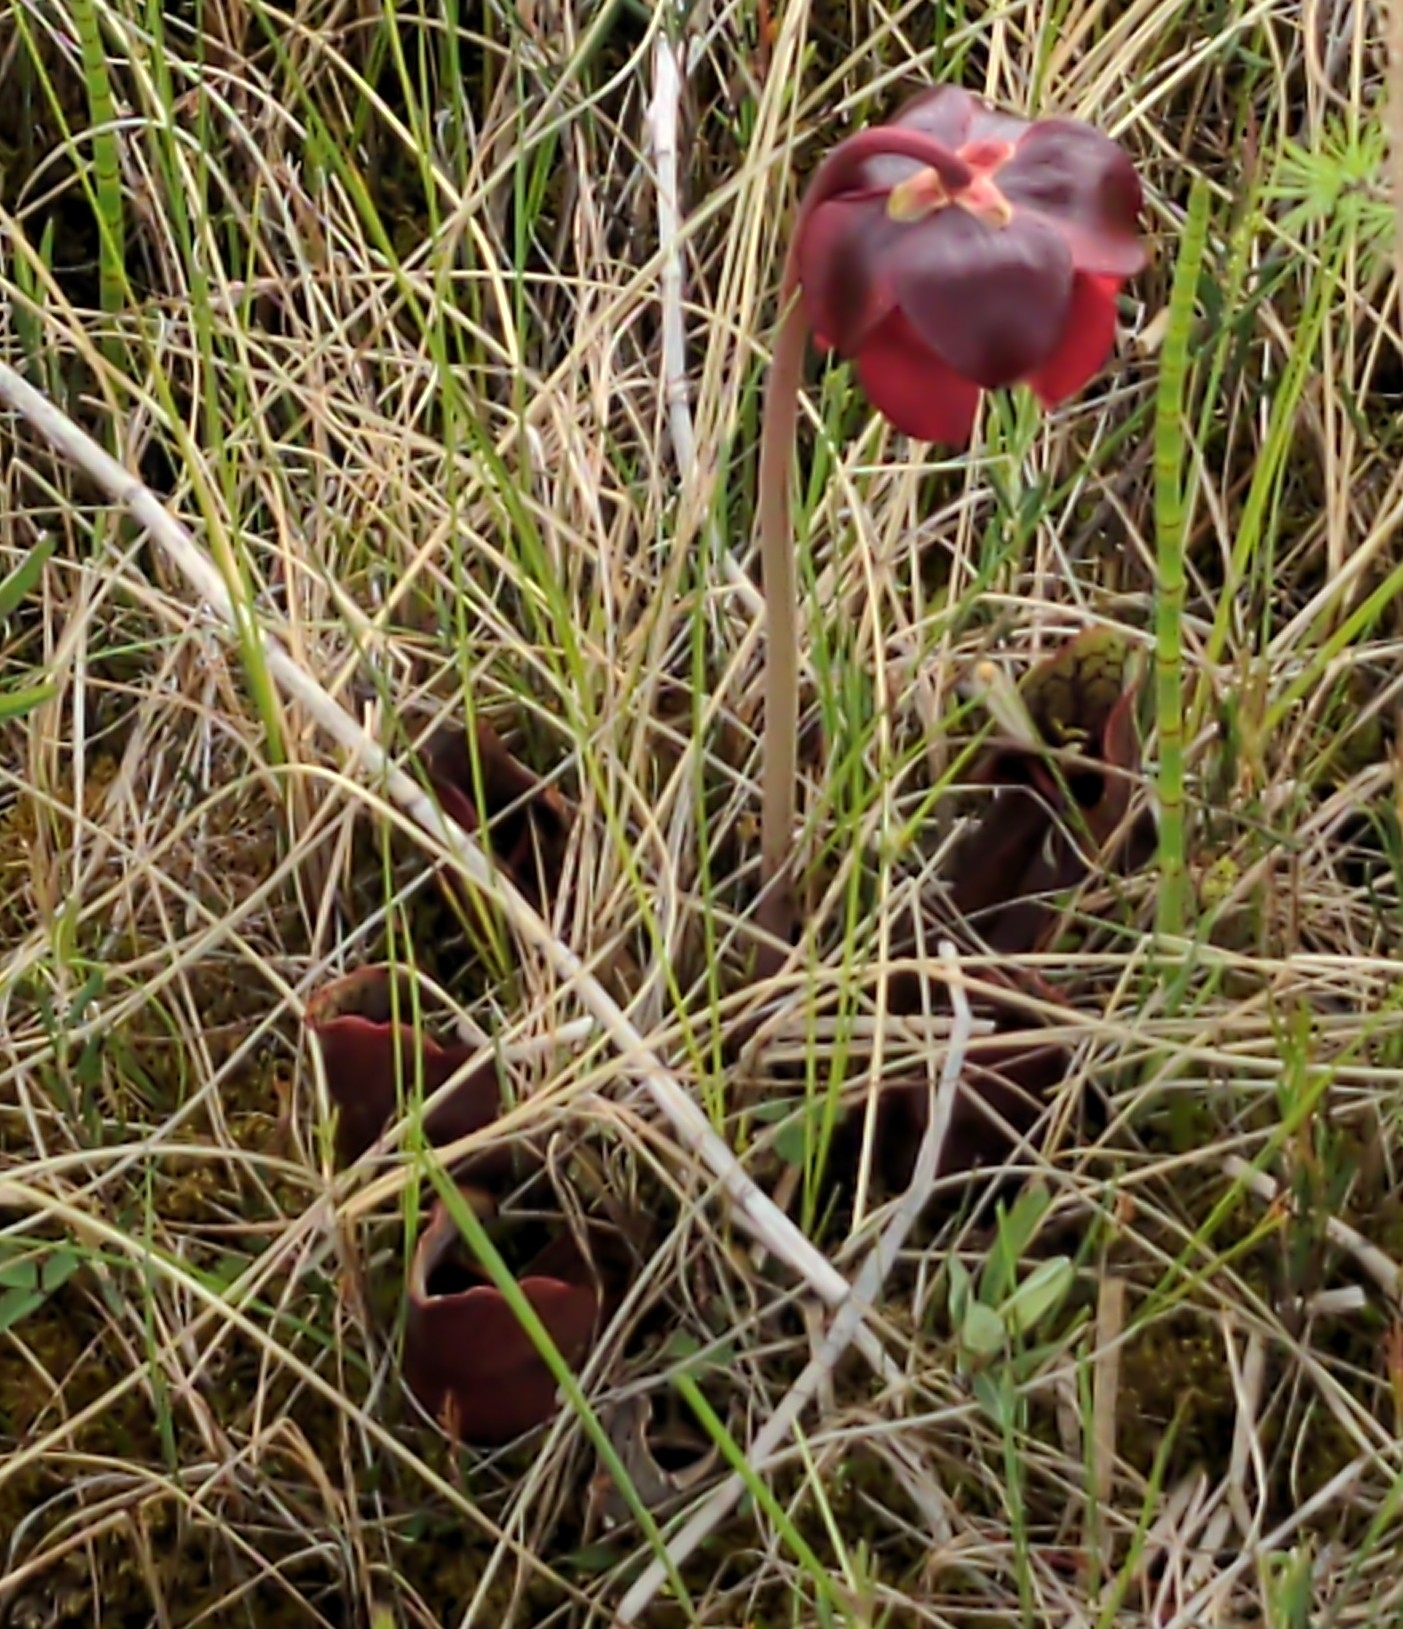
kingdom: Plantae
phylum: Tracheophyta
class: Magnoliopsida
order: Ericales
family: Sarraceniaceae
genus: Sarracenia
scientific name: Sarracenia purpurea
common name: Pitcherplant
